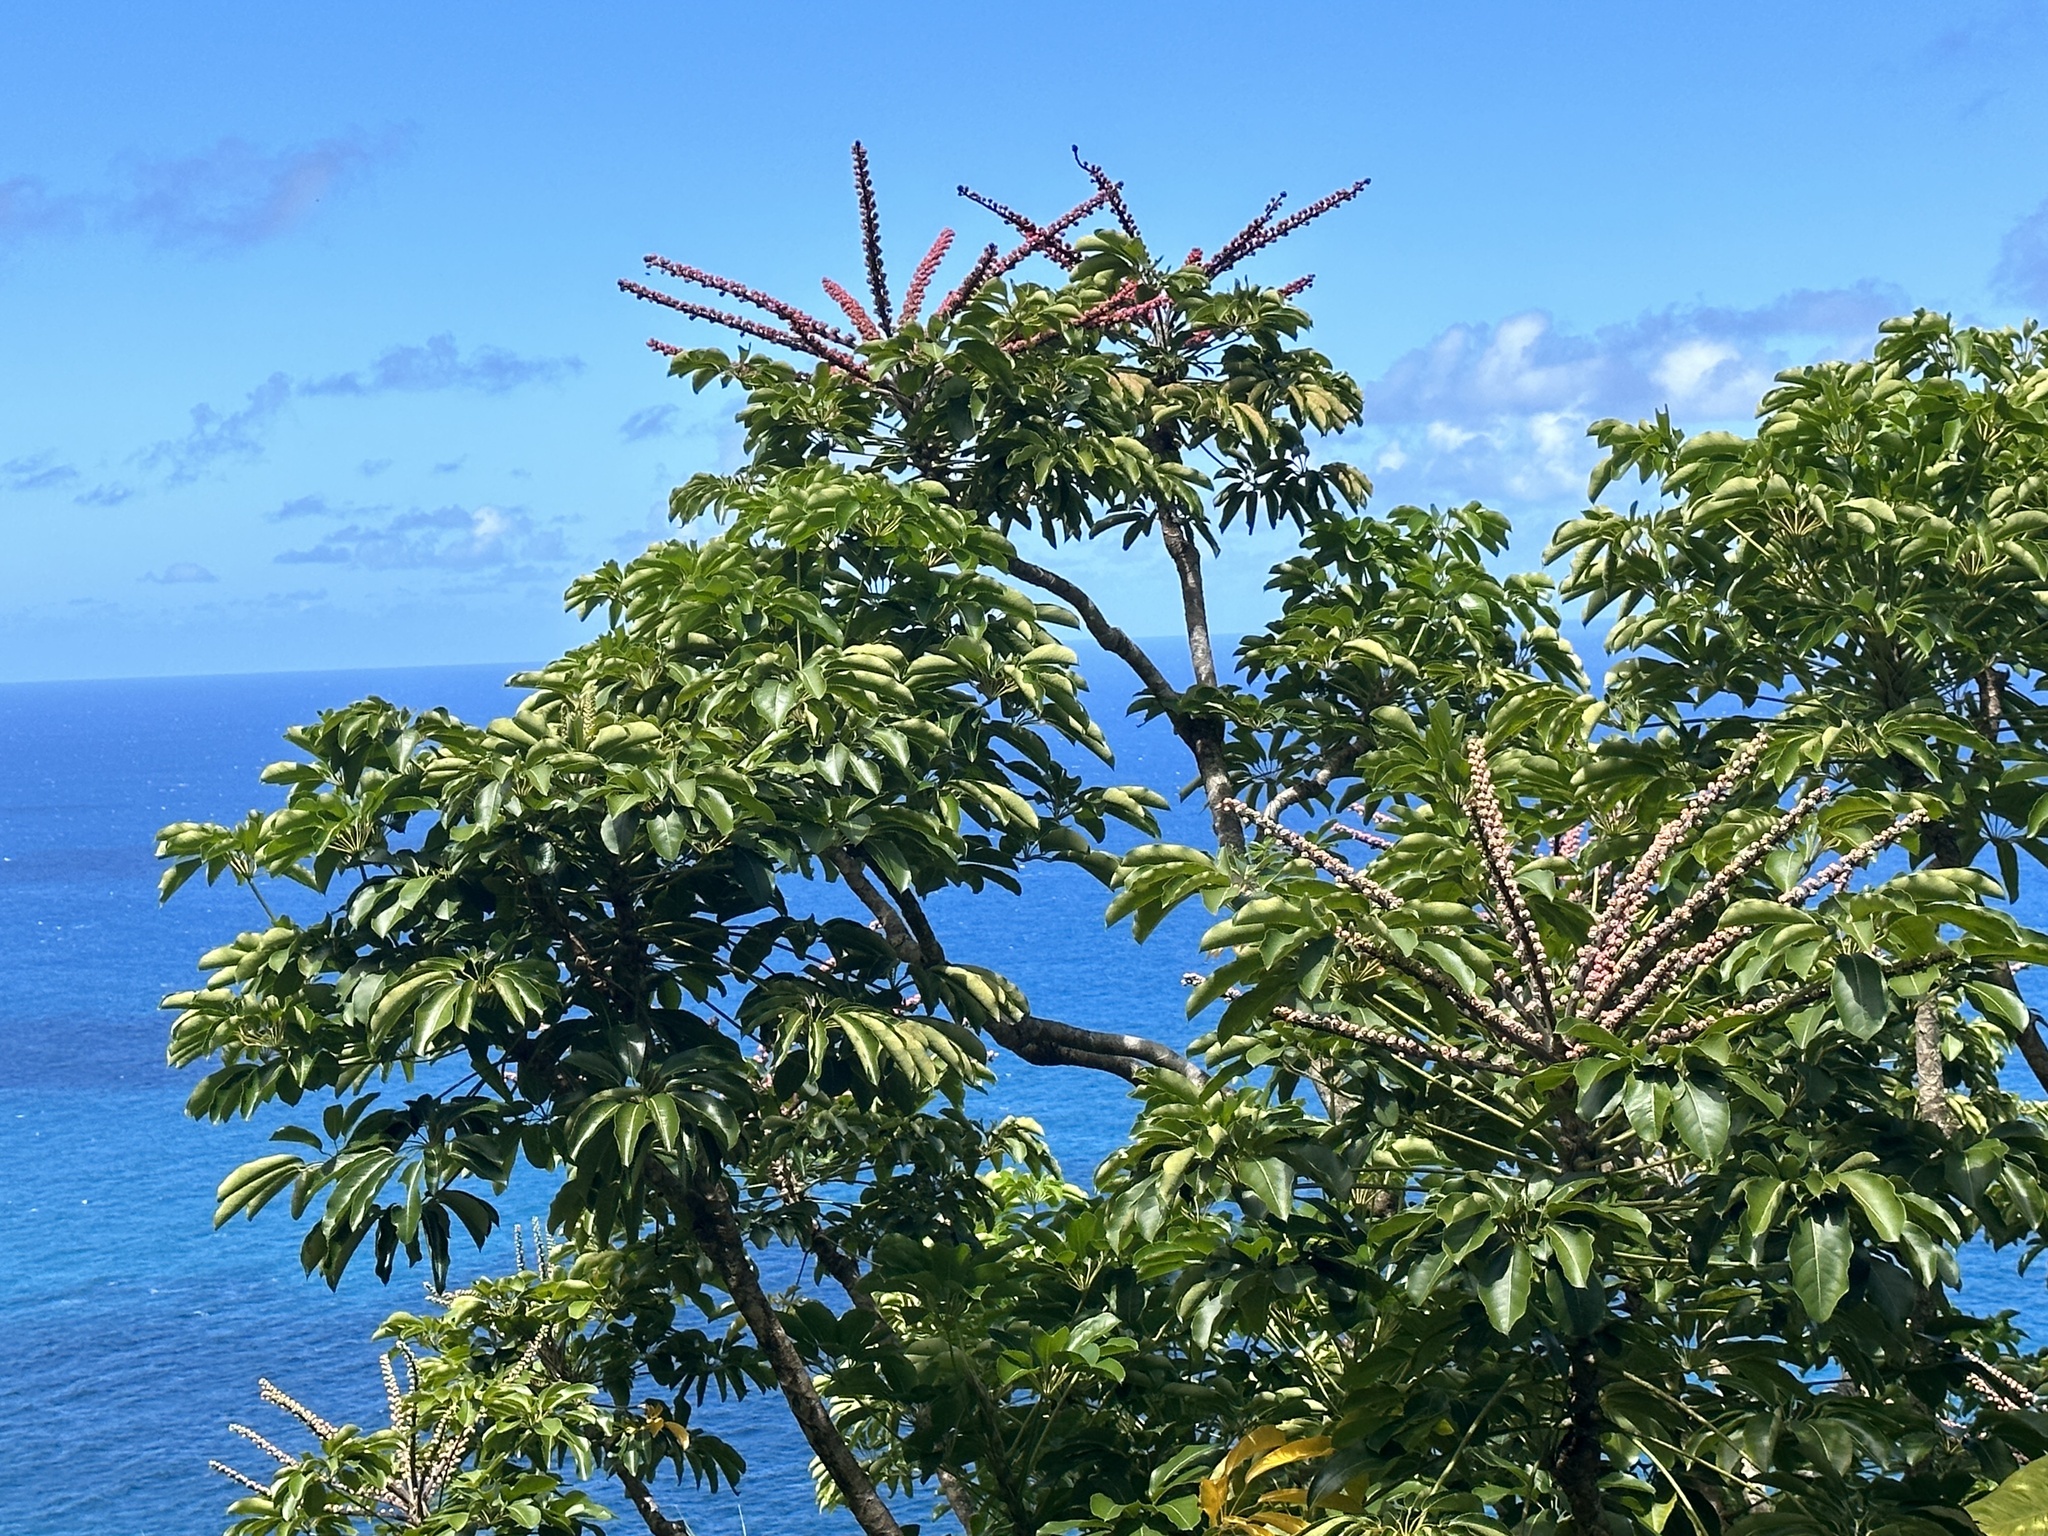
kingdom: Plantae
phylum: Tracheophyta
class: Magnoliopsida
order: Apiales
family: Araliaceae
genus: Heptapleurum
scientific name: Heptapleurum actinophyllum
